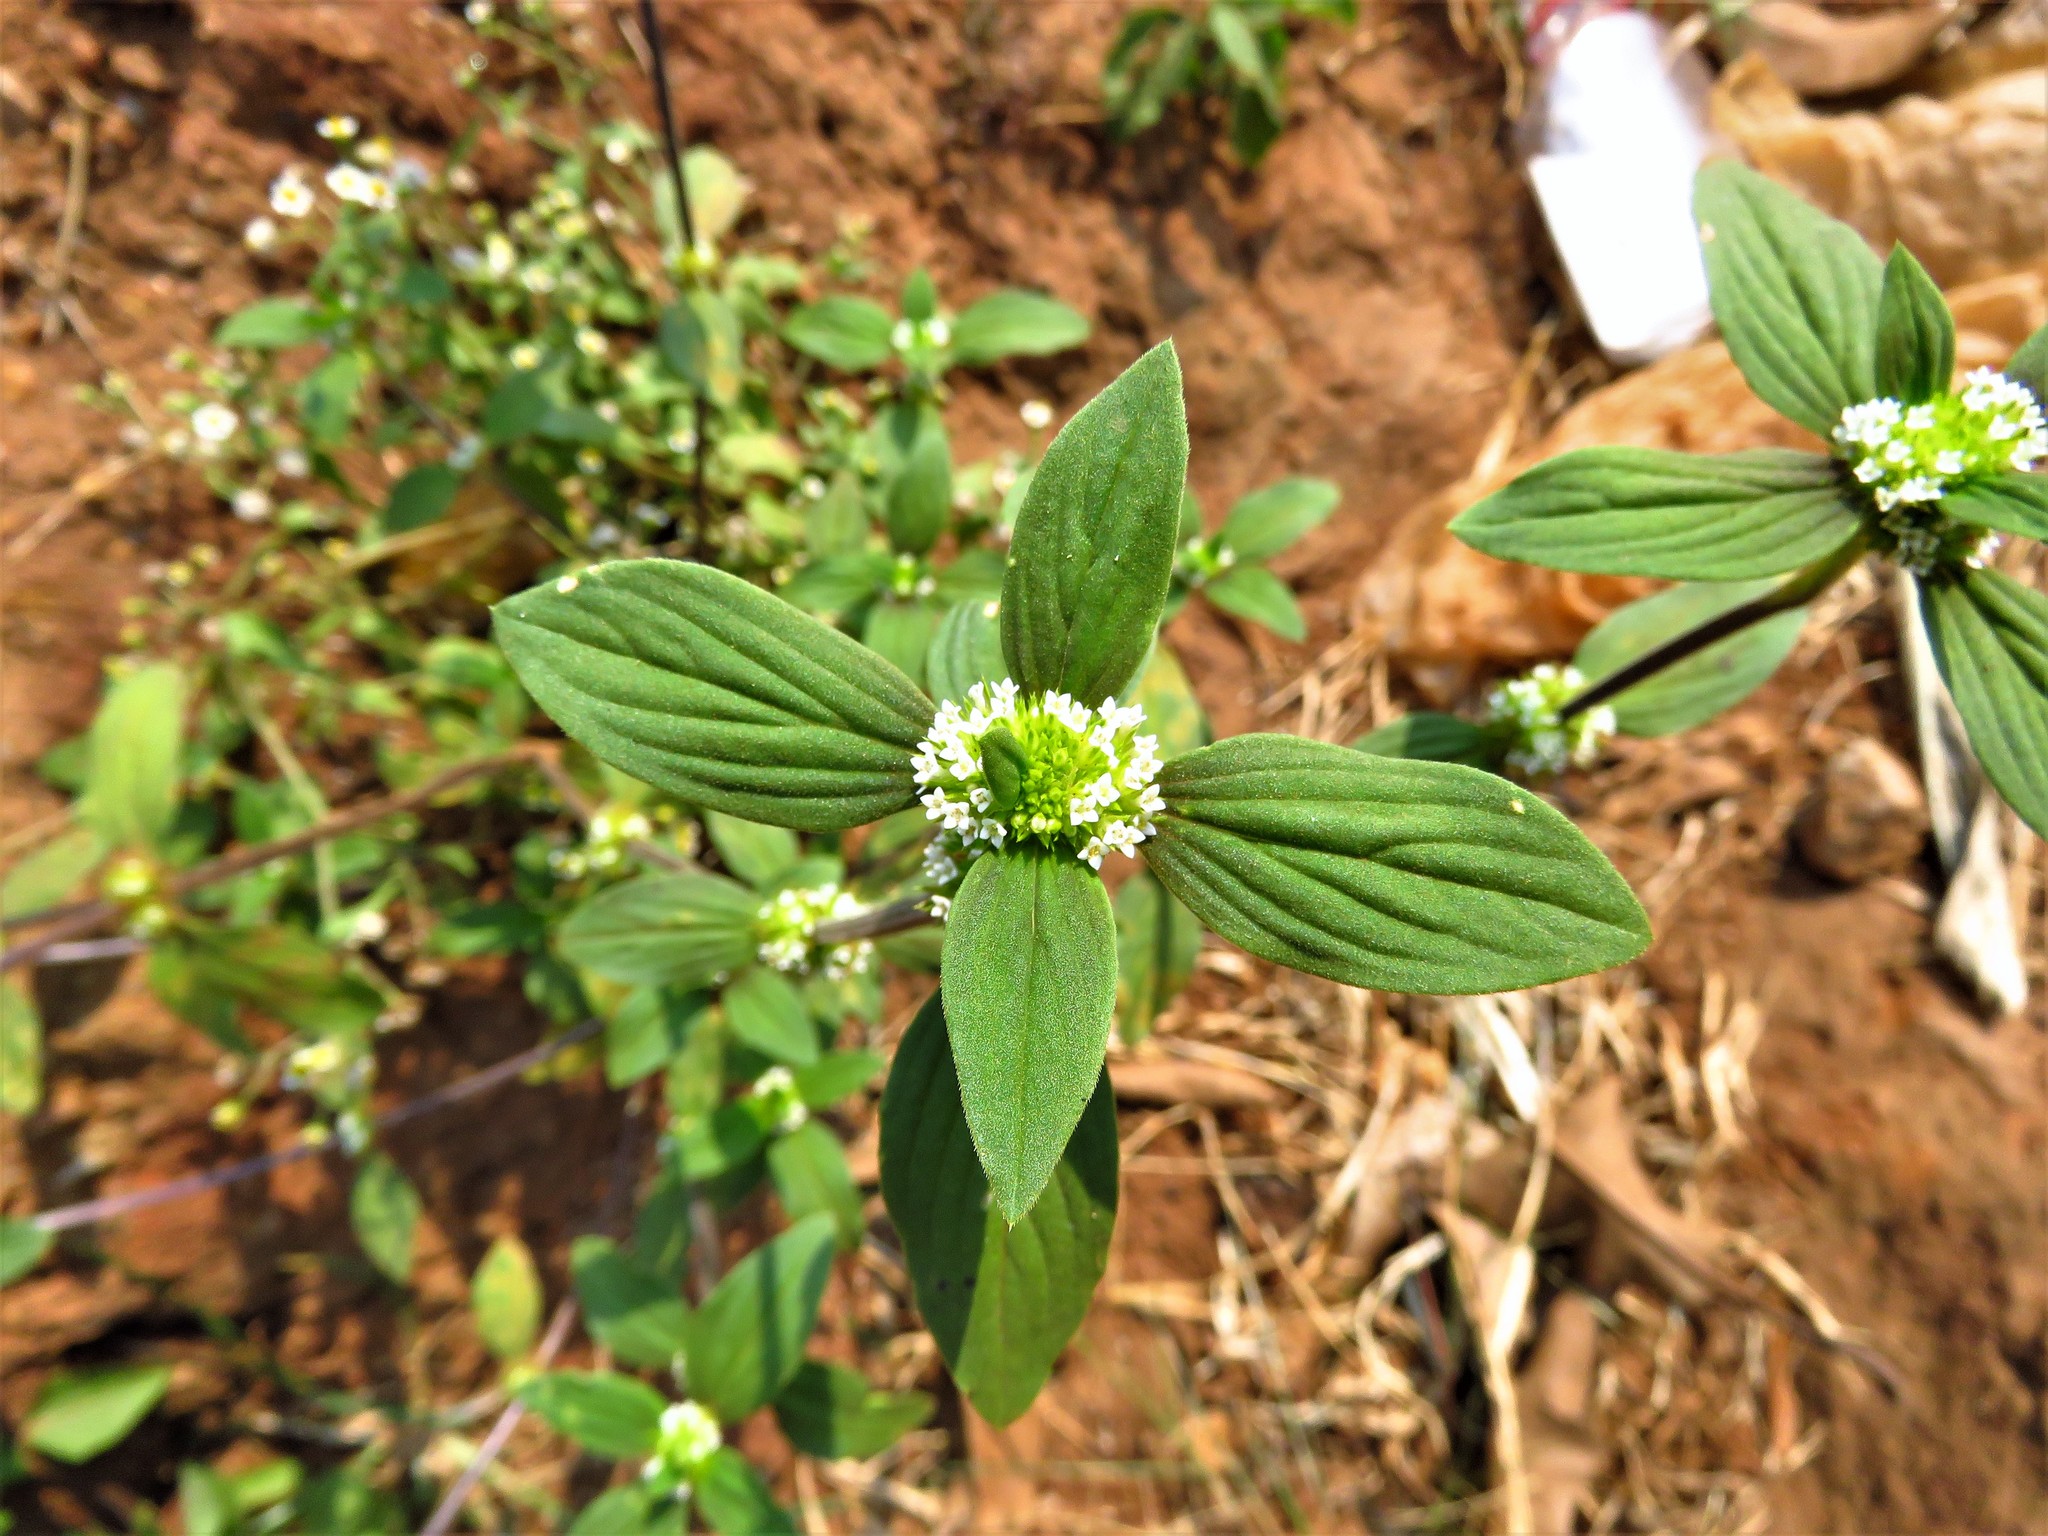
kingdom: Plantae
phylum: Tracheophyta
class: Magnoliopsida
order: Gentianales
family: Rubiaceae
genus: Mitracarpus
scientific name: Mitracarpus hirtus
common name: Tropical girdlepod
